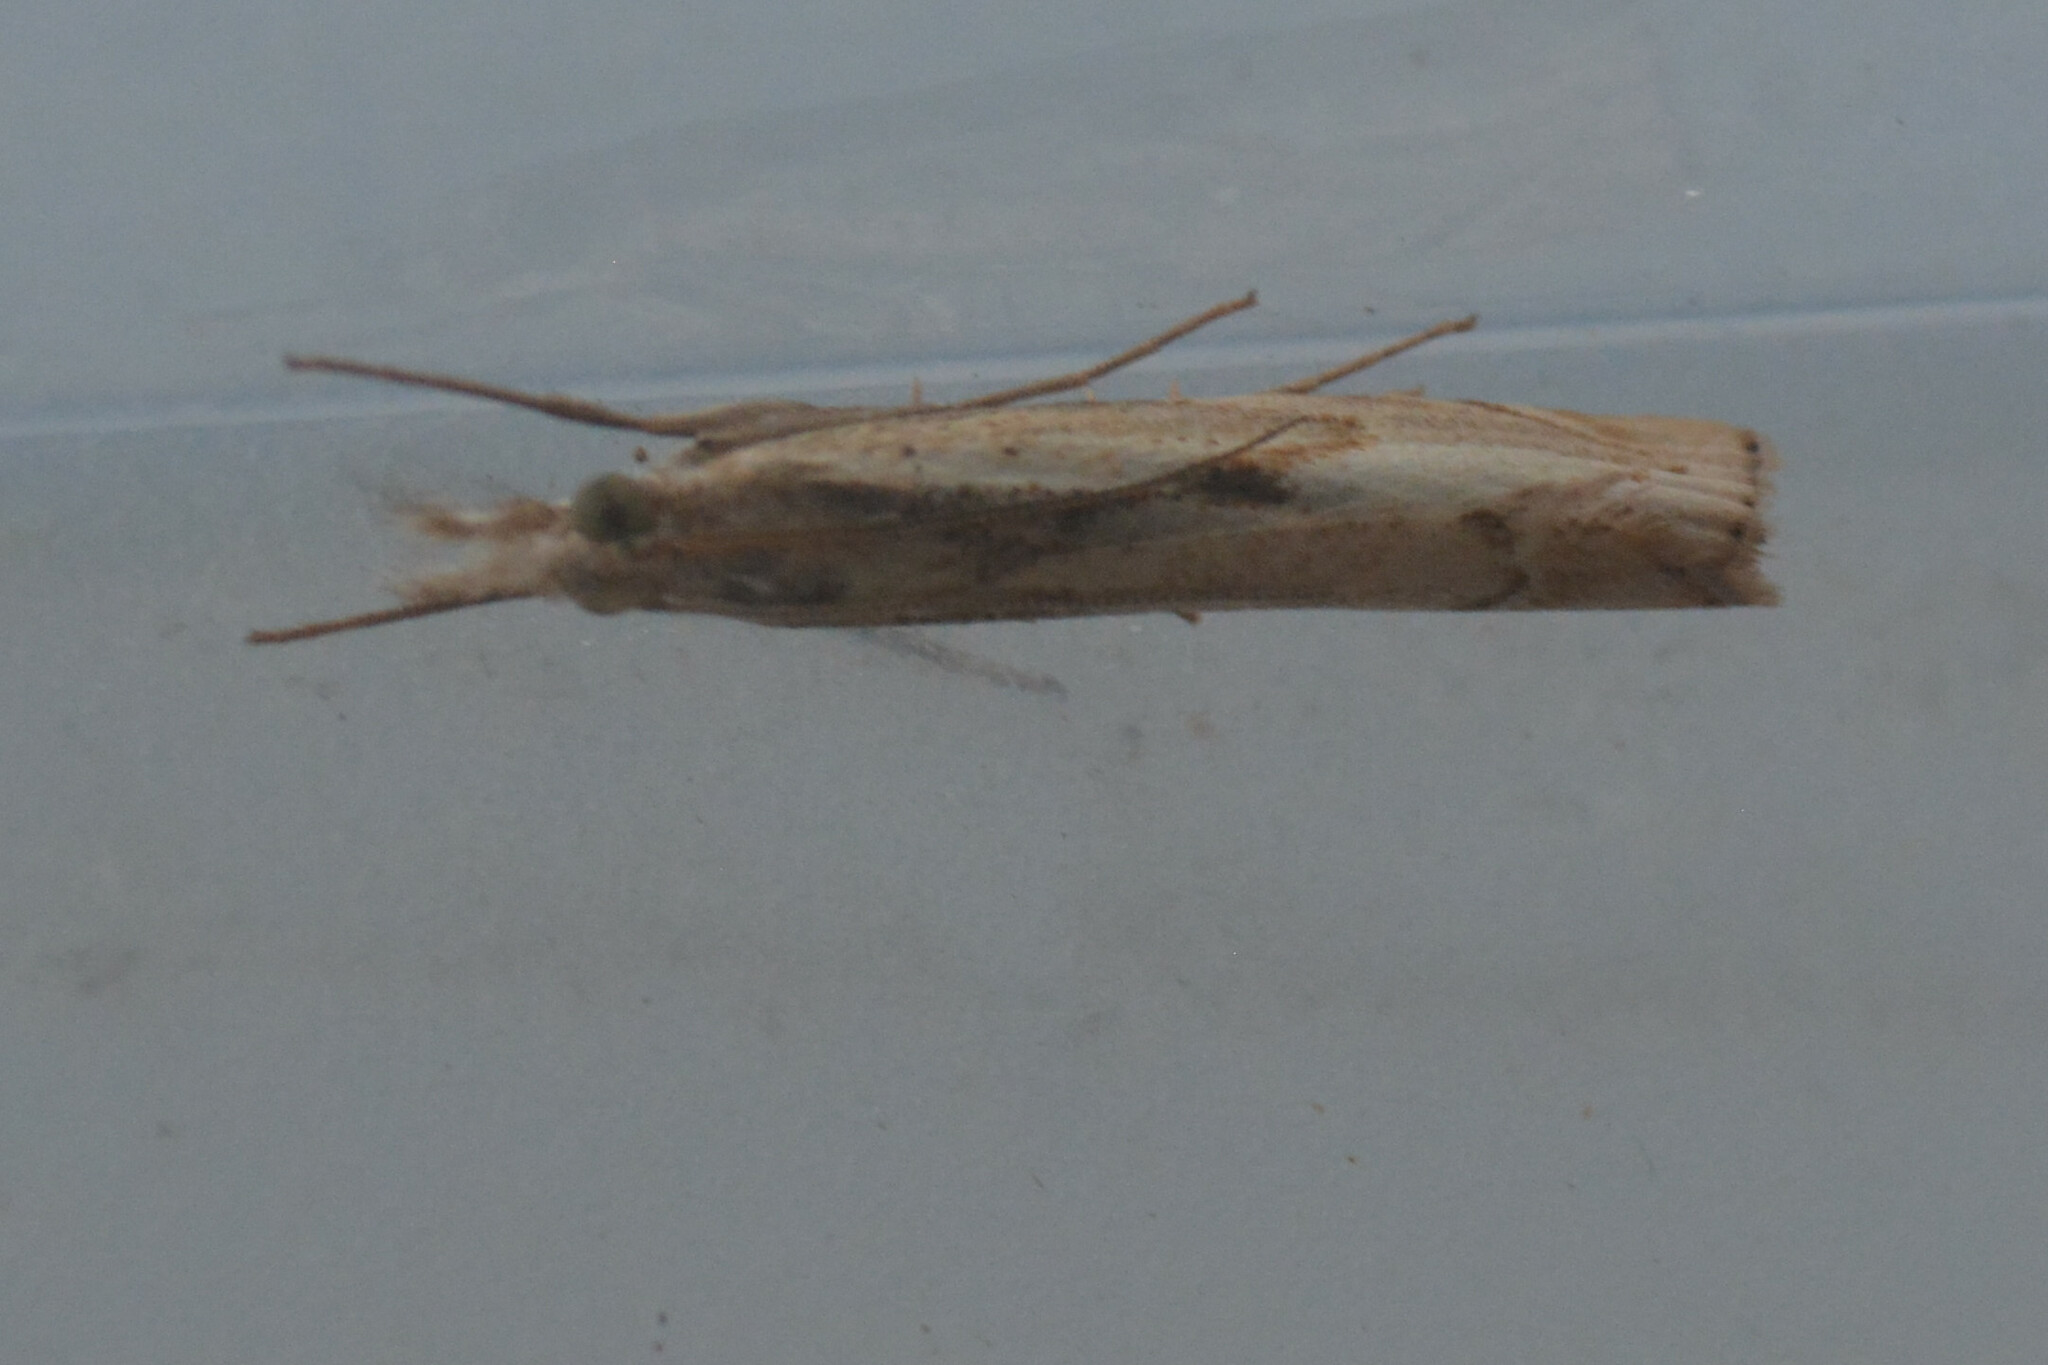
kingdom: Animalia
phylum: Arthropoda
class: Insecta
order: Lepidoptera
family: Crambidae
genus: Agriphila
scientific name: Agriphila geniculea
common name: Elbow-stripe grass-veneer
